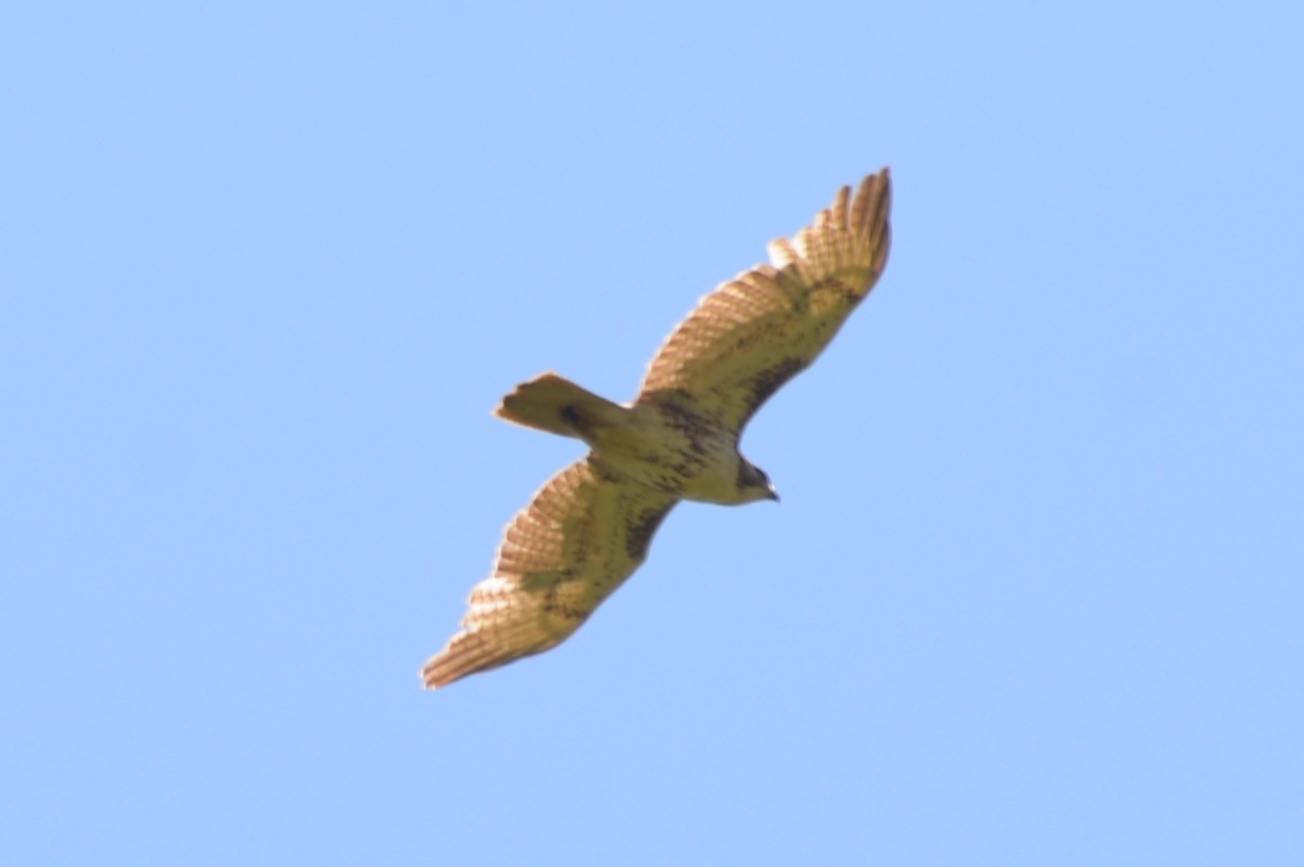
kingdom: Animalia
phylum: Chordata
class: Aves
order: Accipitriformes
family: Accipitridae
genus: Buteo
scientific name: Buteo jamaicensis
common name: Red-tailed hawk
